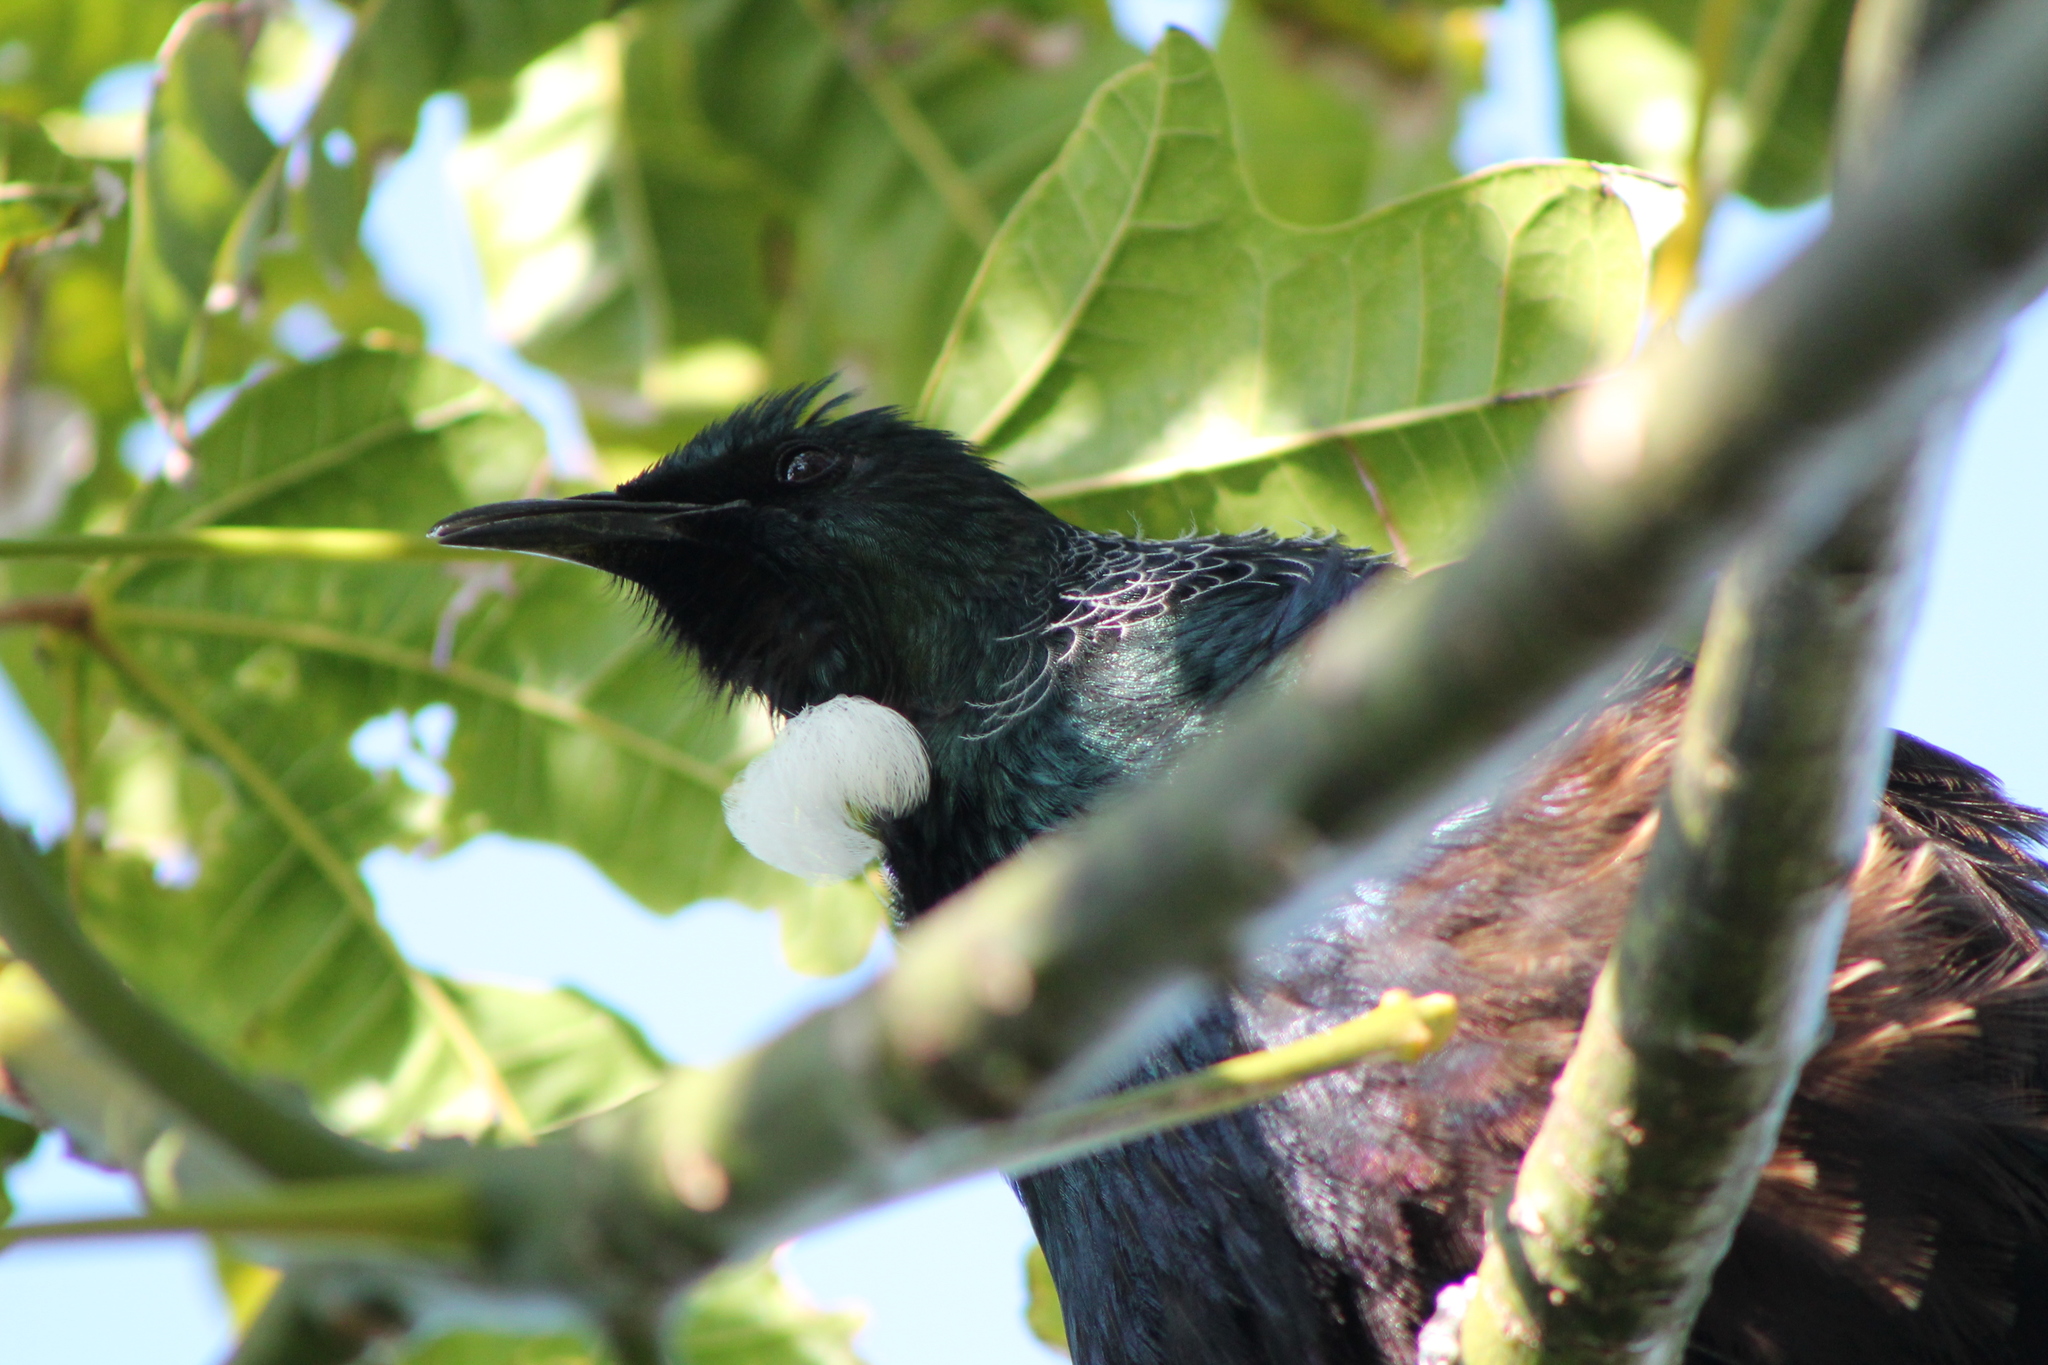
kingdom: Animalia
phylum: Chordata
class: Aves
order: Passeriformes
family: Meliphagidae
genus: Prosthemadera
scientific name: Prosthemadera novaeseelandiae
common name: Tui
